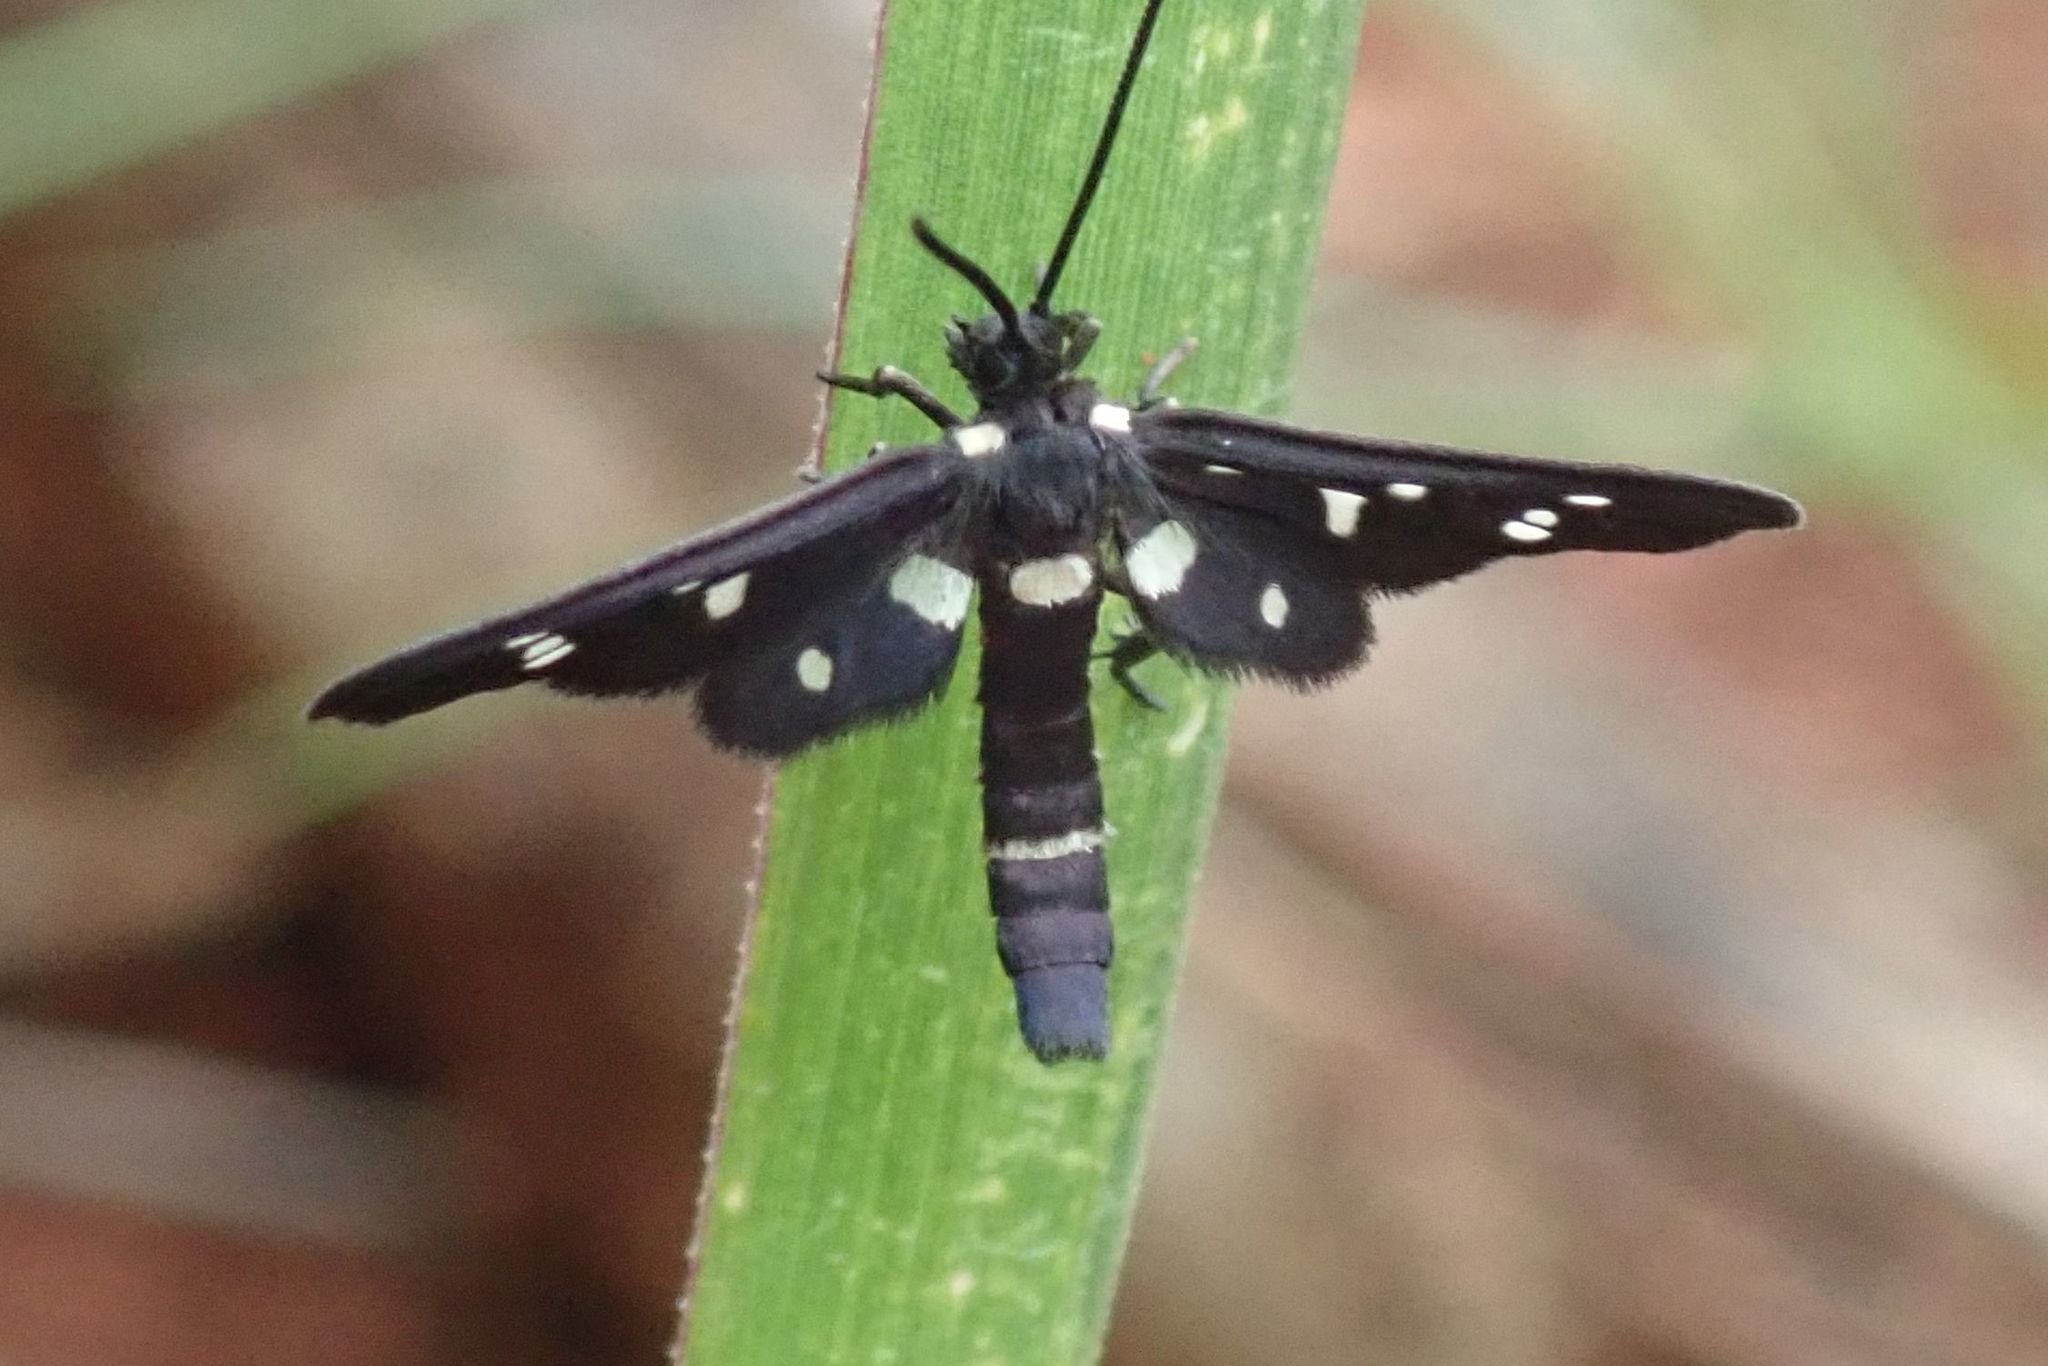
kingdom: Animalia
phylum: Arthropoda
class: Insecta
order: Lepidoptera
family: Erebidae
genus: Amata
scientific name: Amata rendalli
